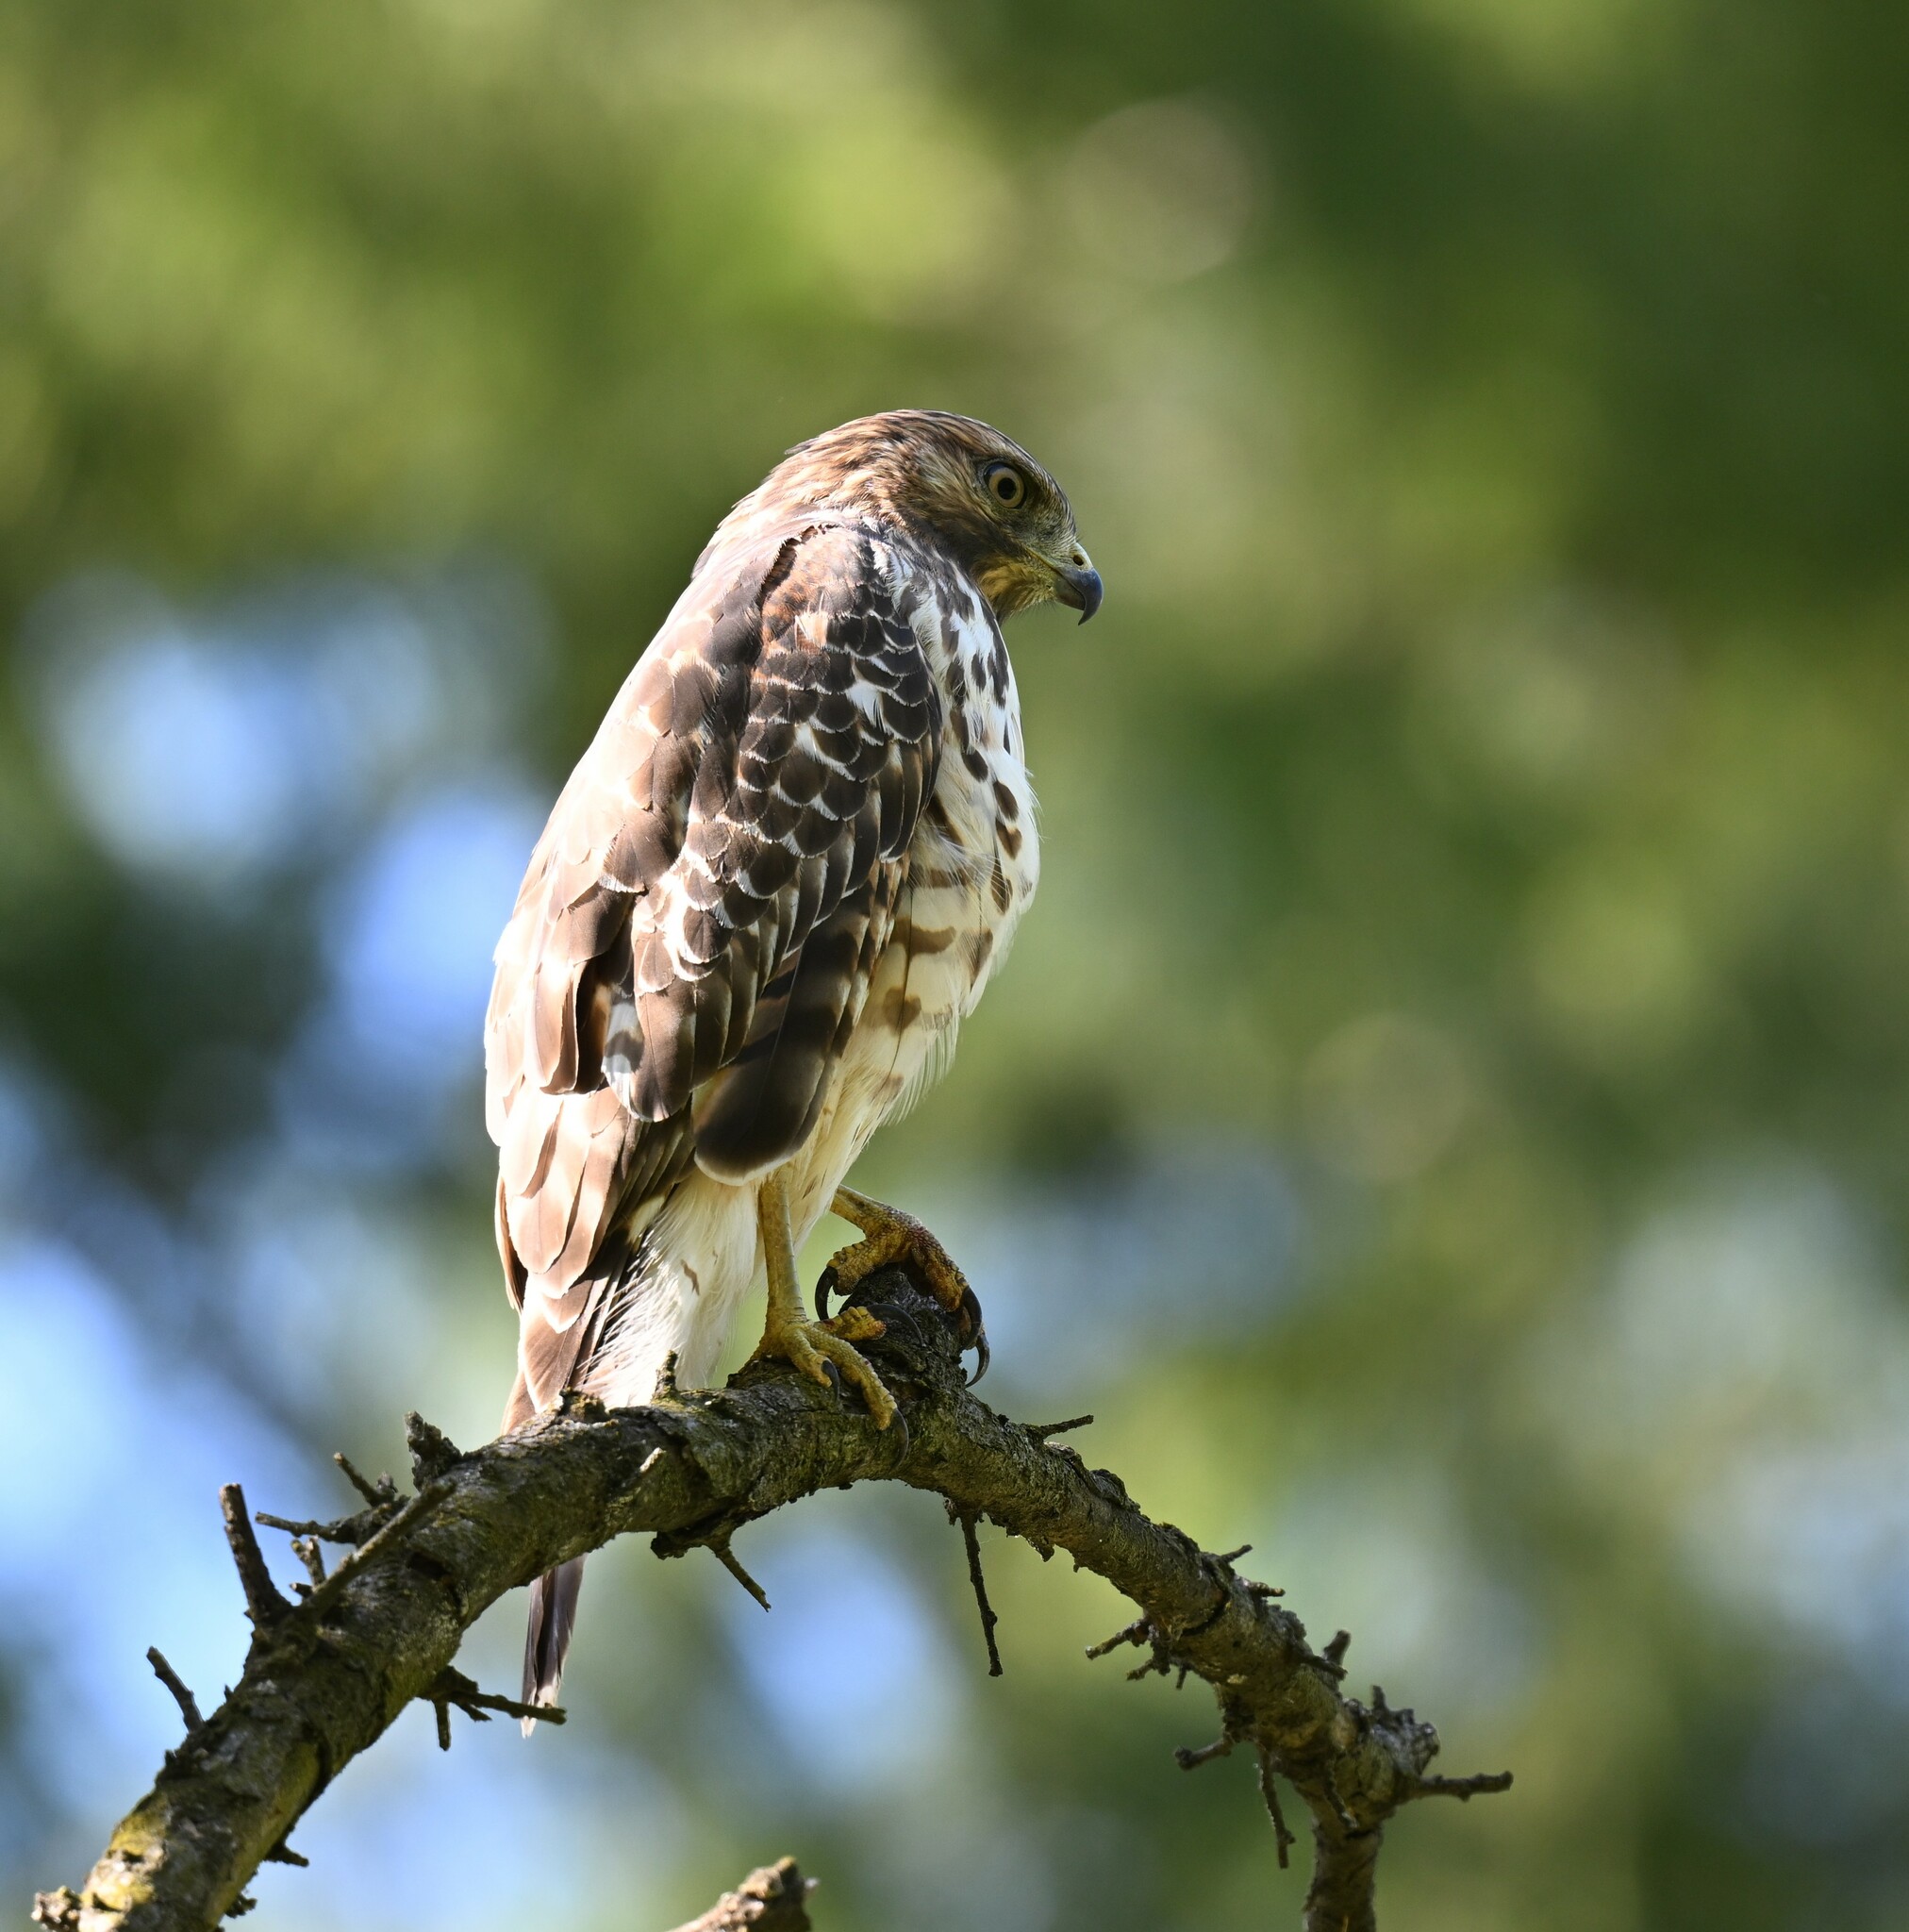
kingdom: Animalia
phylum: Chordata
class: Aves
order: Accipitriformes
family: Accipitridae
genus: Buteo
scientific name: Buteo lineatus
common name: Red-shouldered hawk
